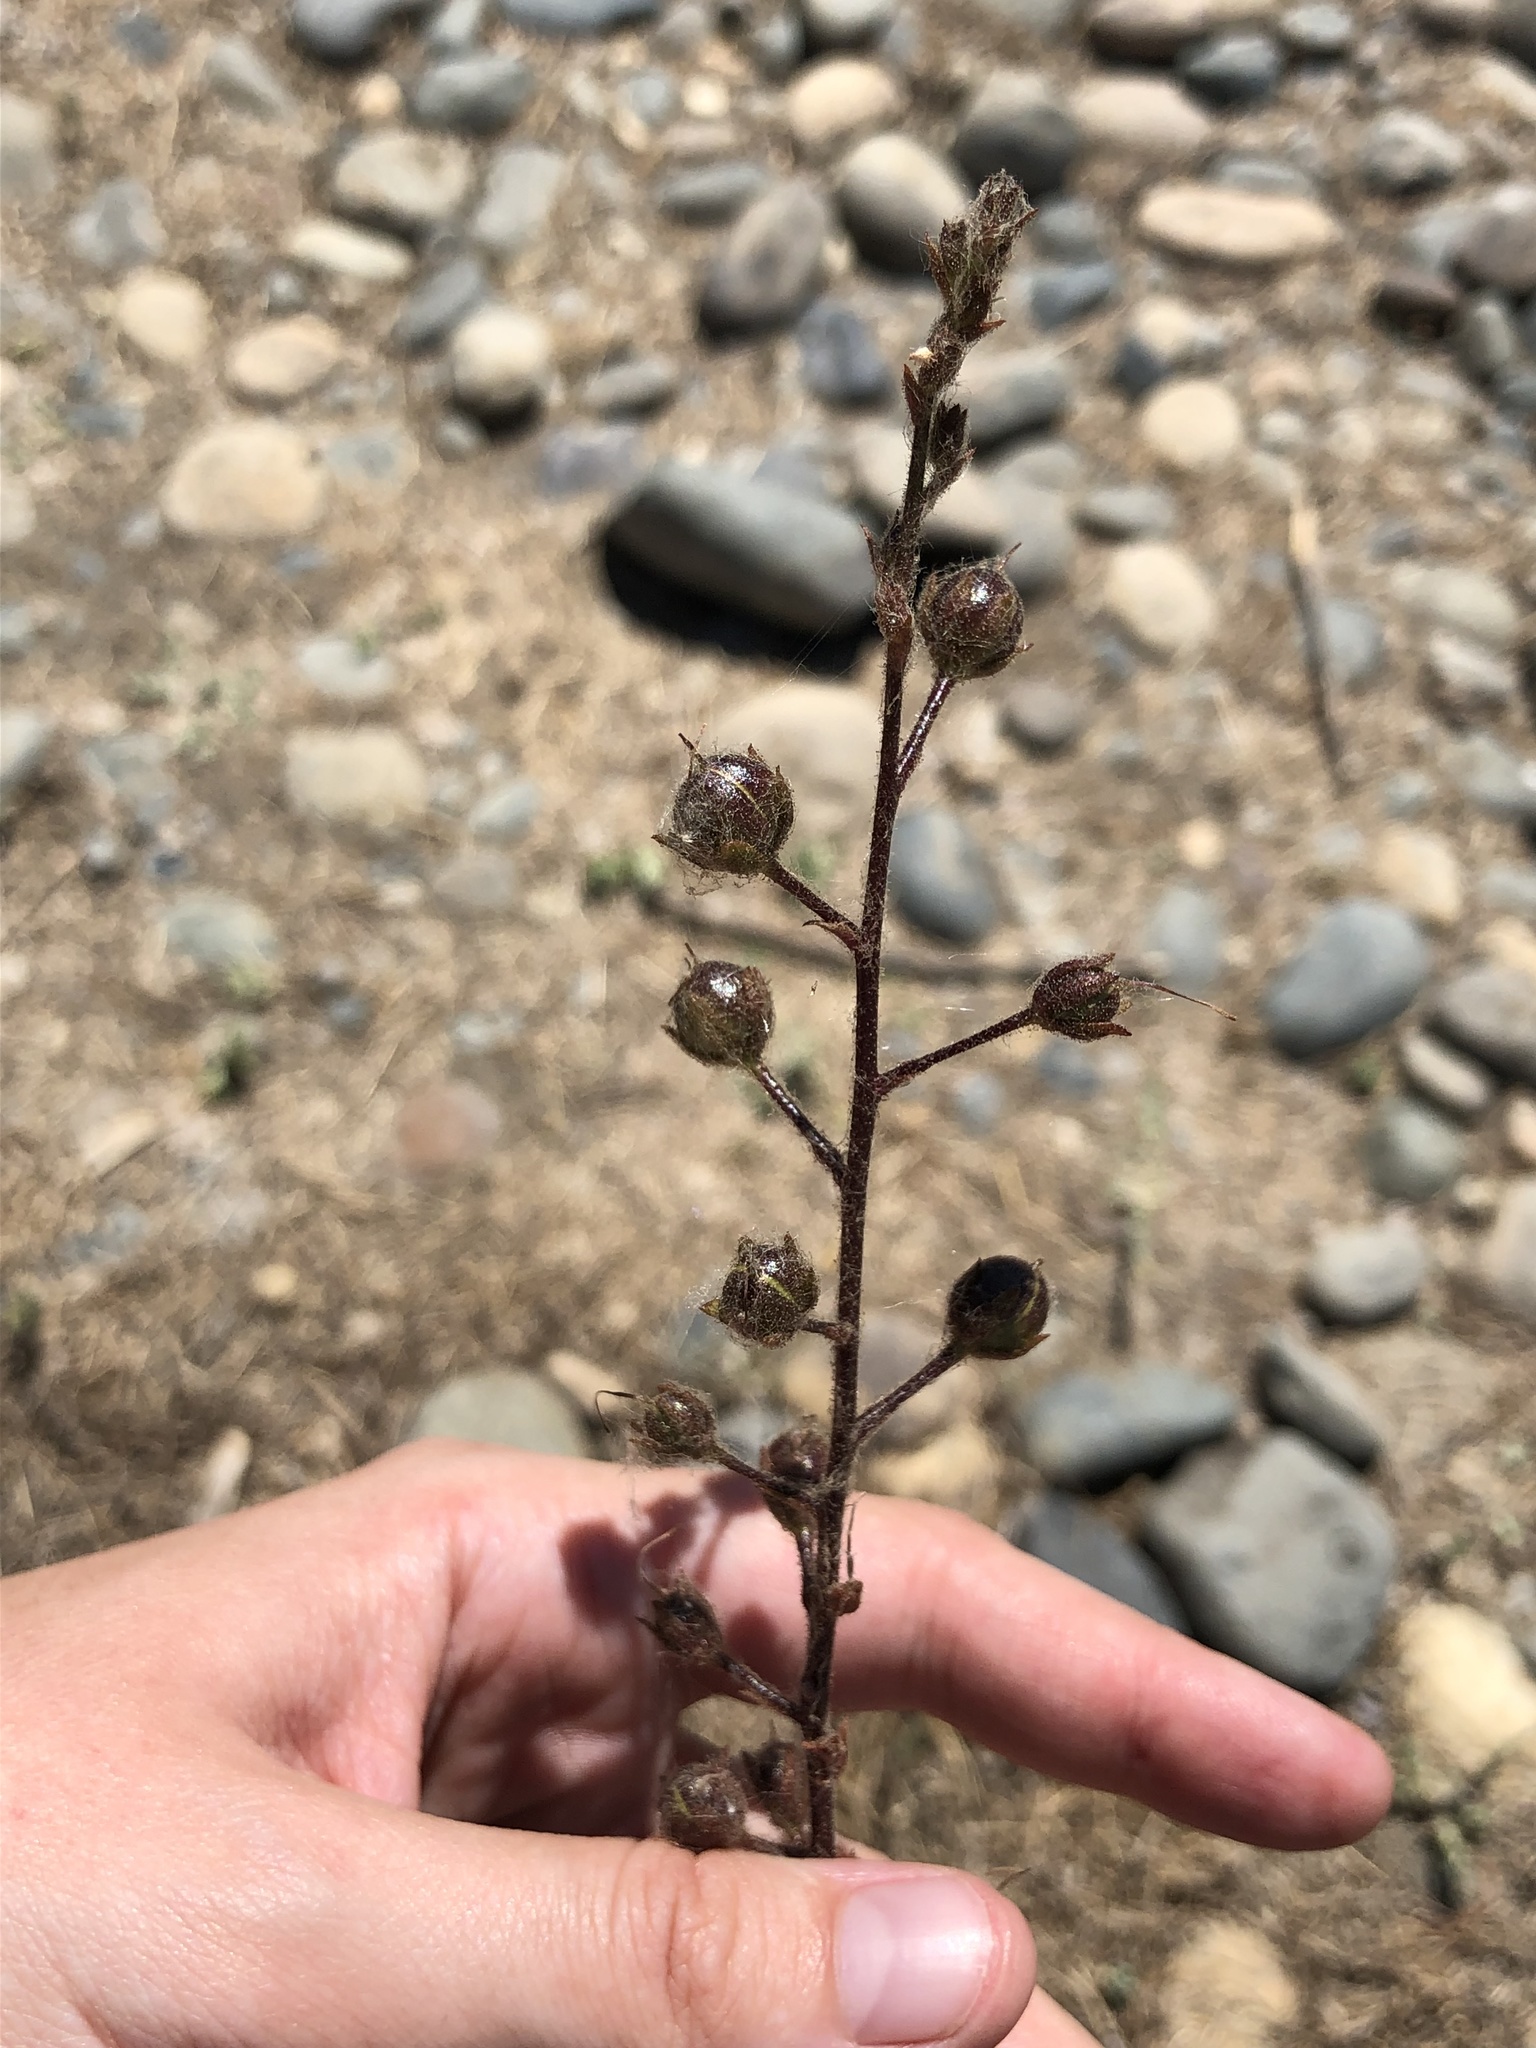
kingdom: Plantae
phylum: Tracheophyta
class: Magnoliopsida
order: Lamiales
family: Scrophulariaceae
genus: Verbascum
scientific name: Verbascum blattaria
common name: Moth mullein
